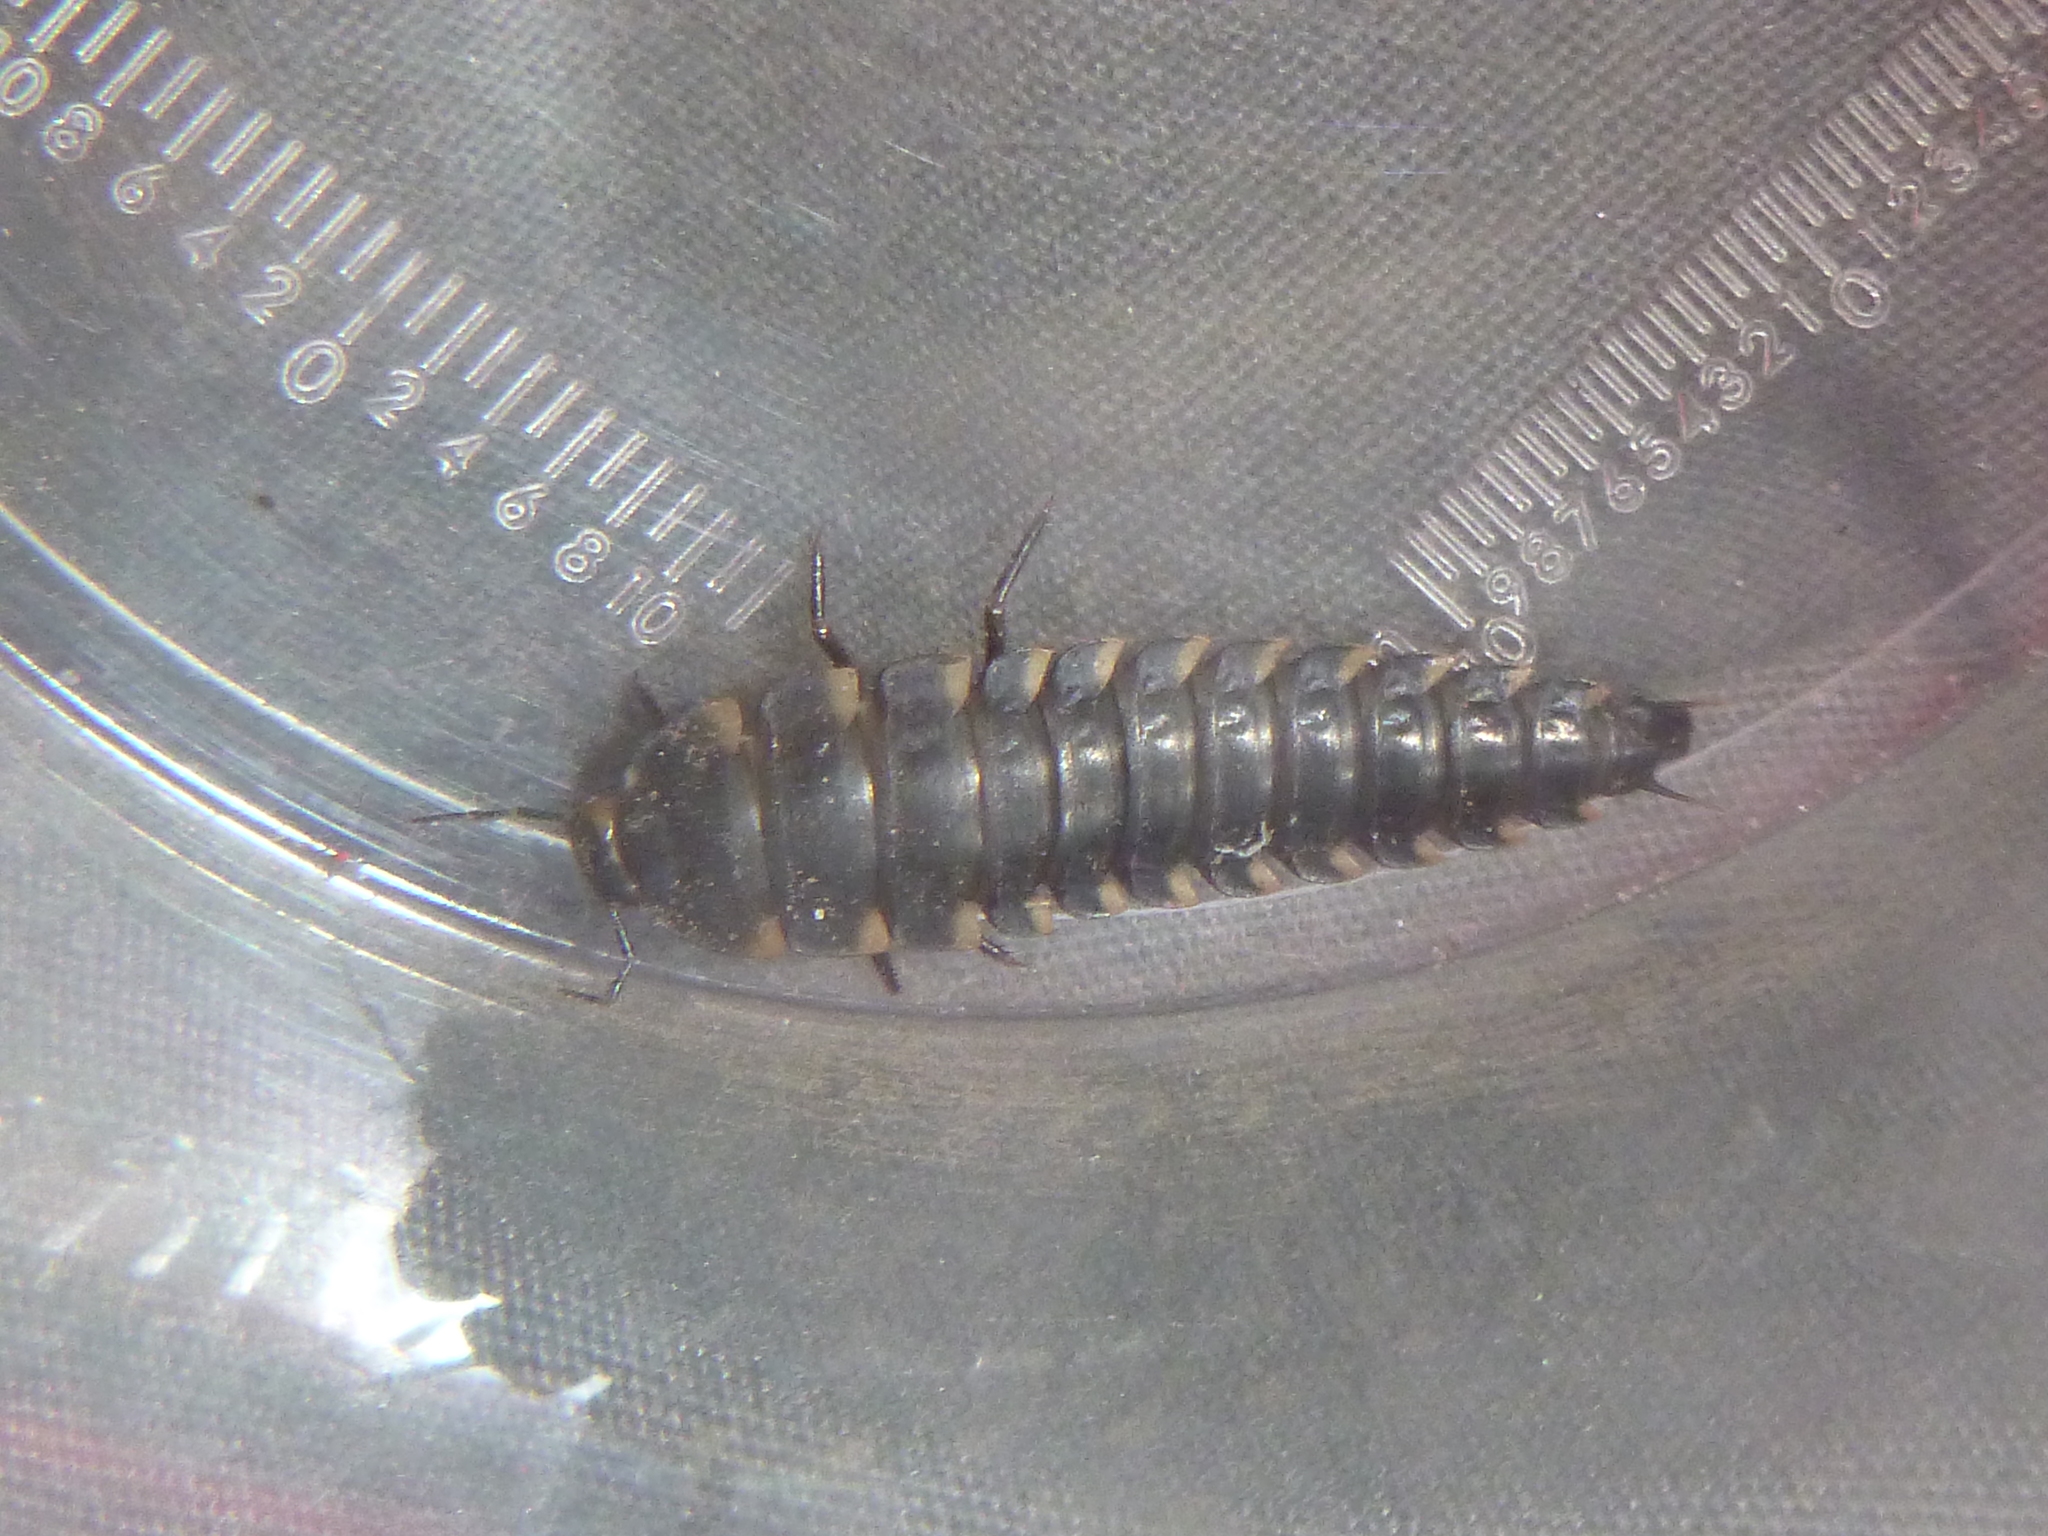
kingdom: Animalia
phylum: Arthropoda
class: Insecta
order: Coleoptera
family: Staphylinidae
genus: Silpha
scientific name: Silpha tristis
